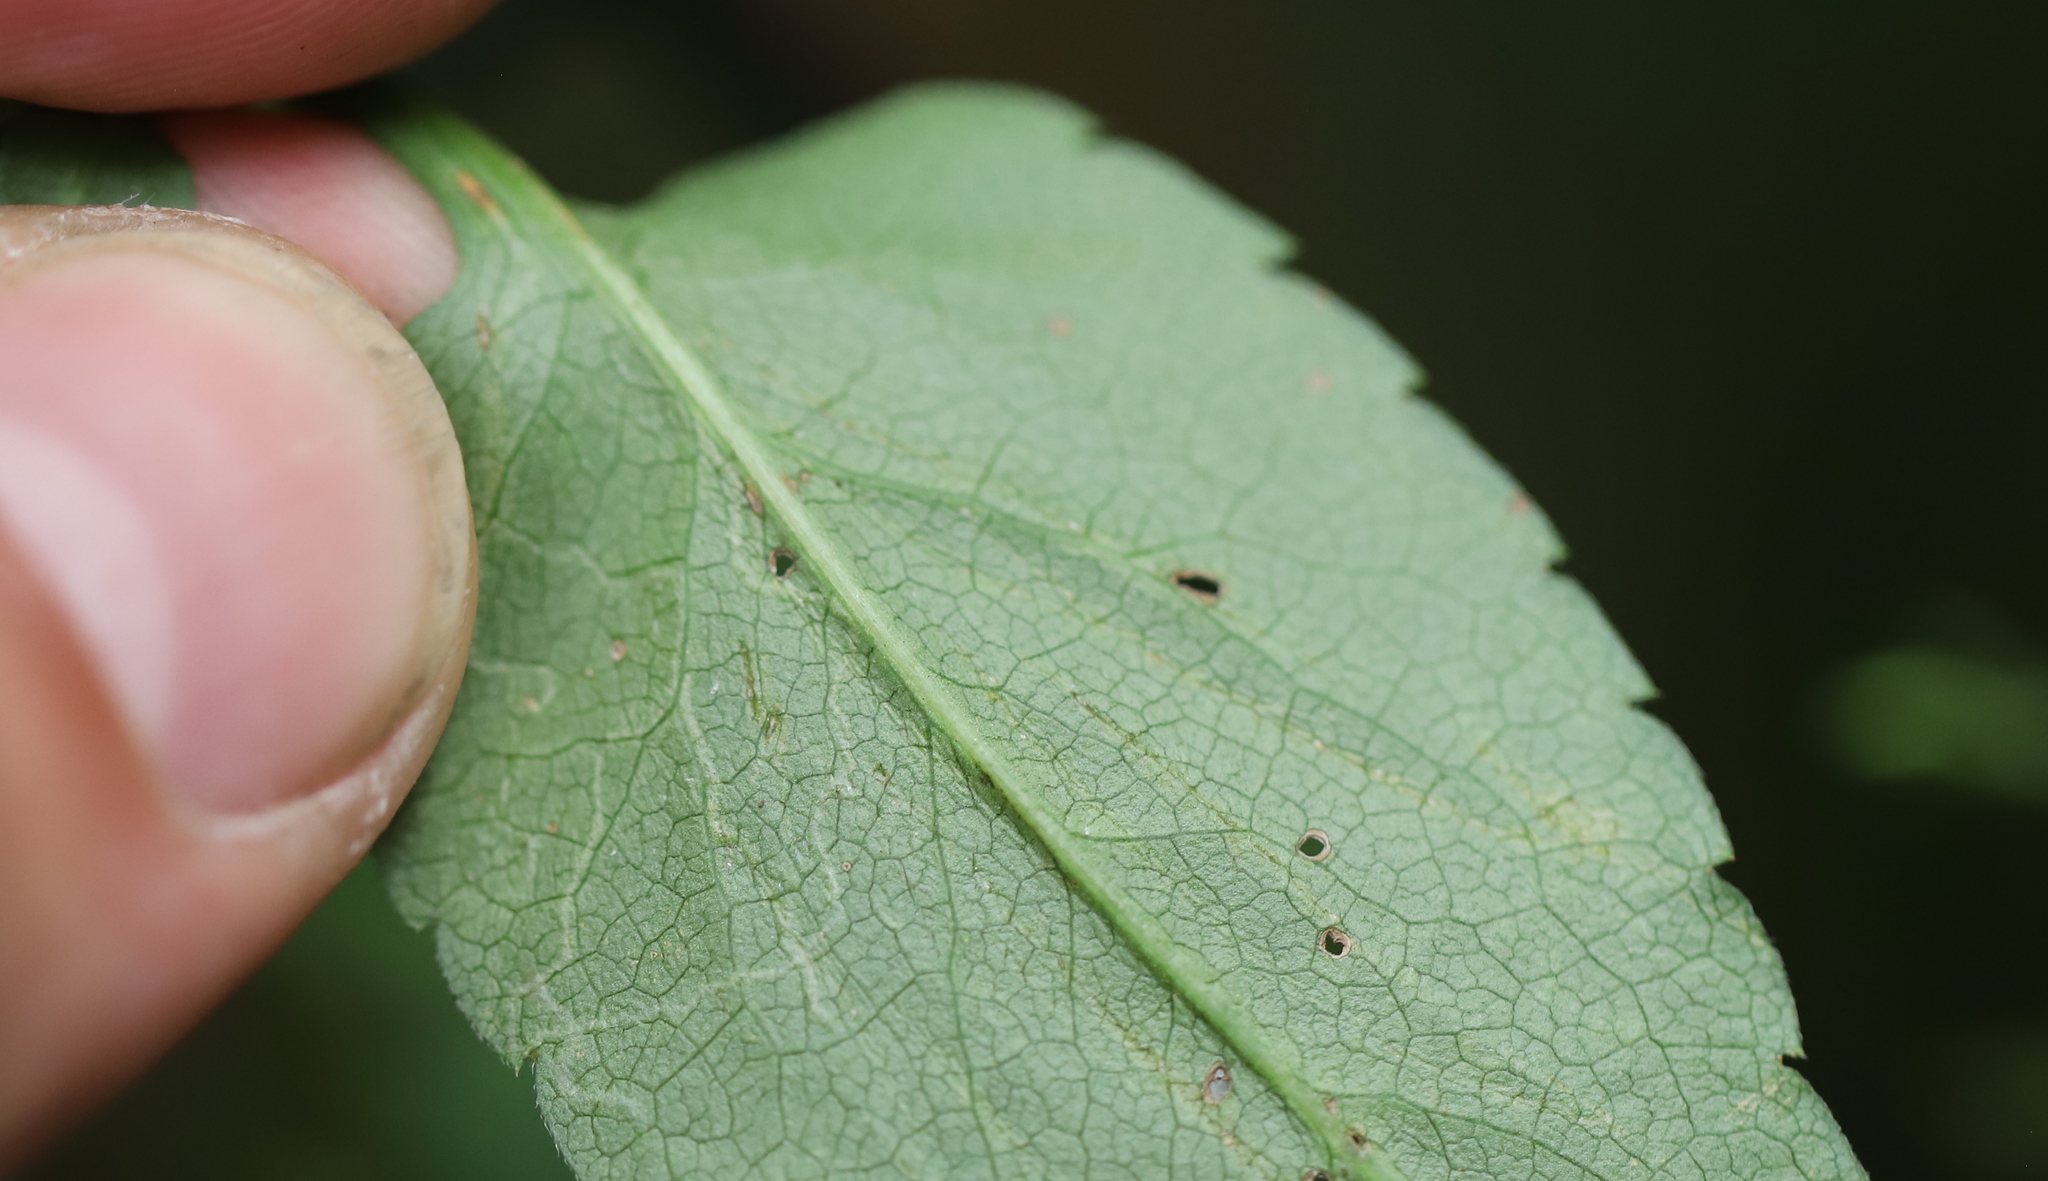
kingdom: Animalia
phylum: Arthropoda
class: Insecta
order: Diptera
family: Agromyzidae
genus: Ophiomyia
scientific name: Ophiomyia asterovora
